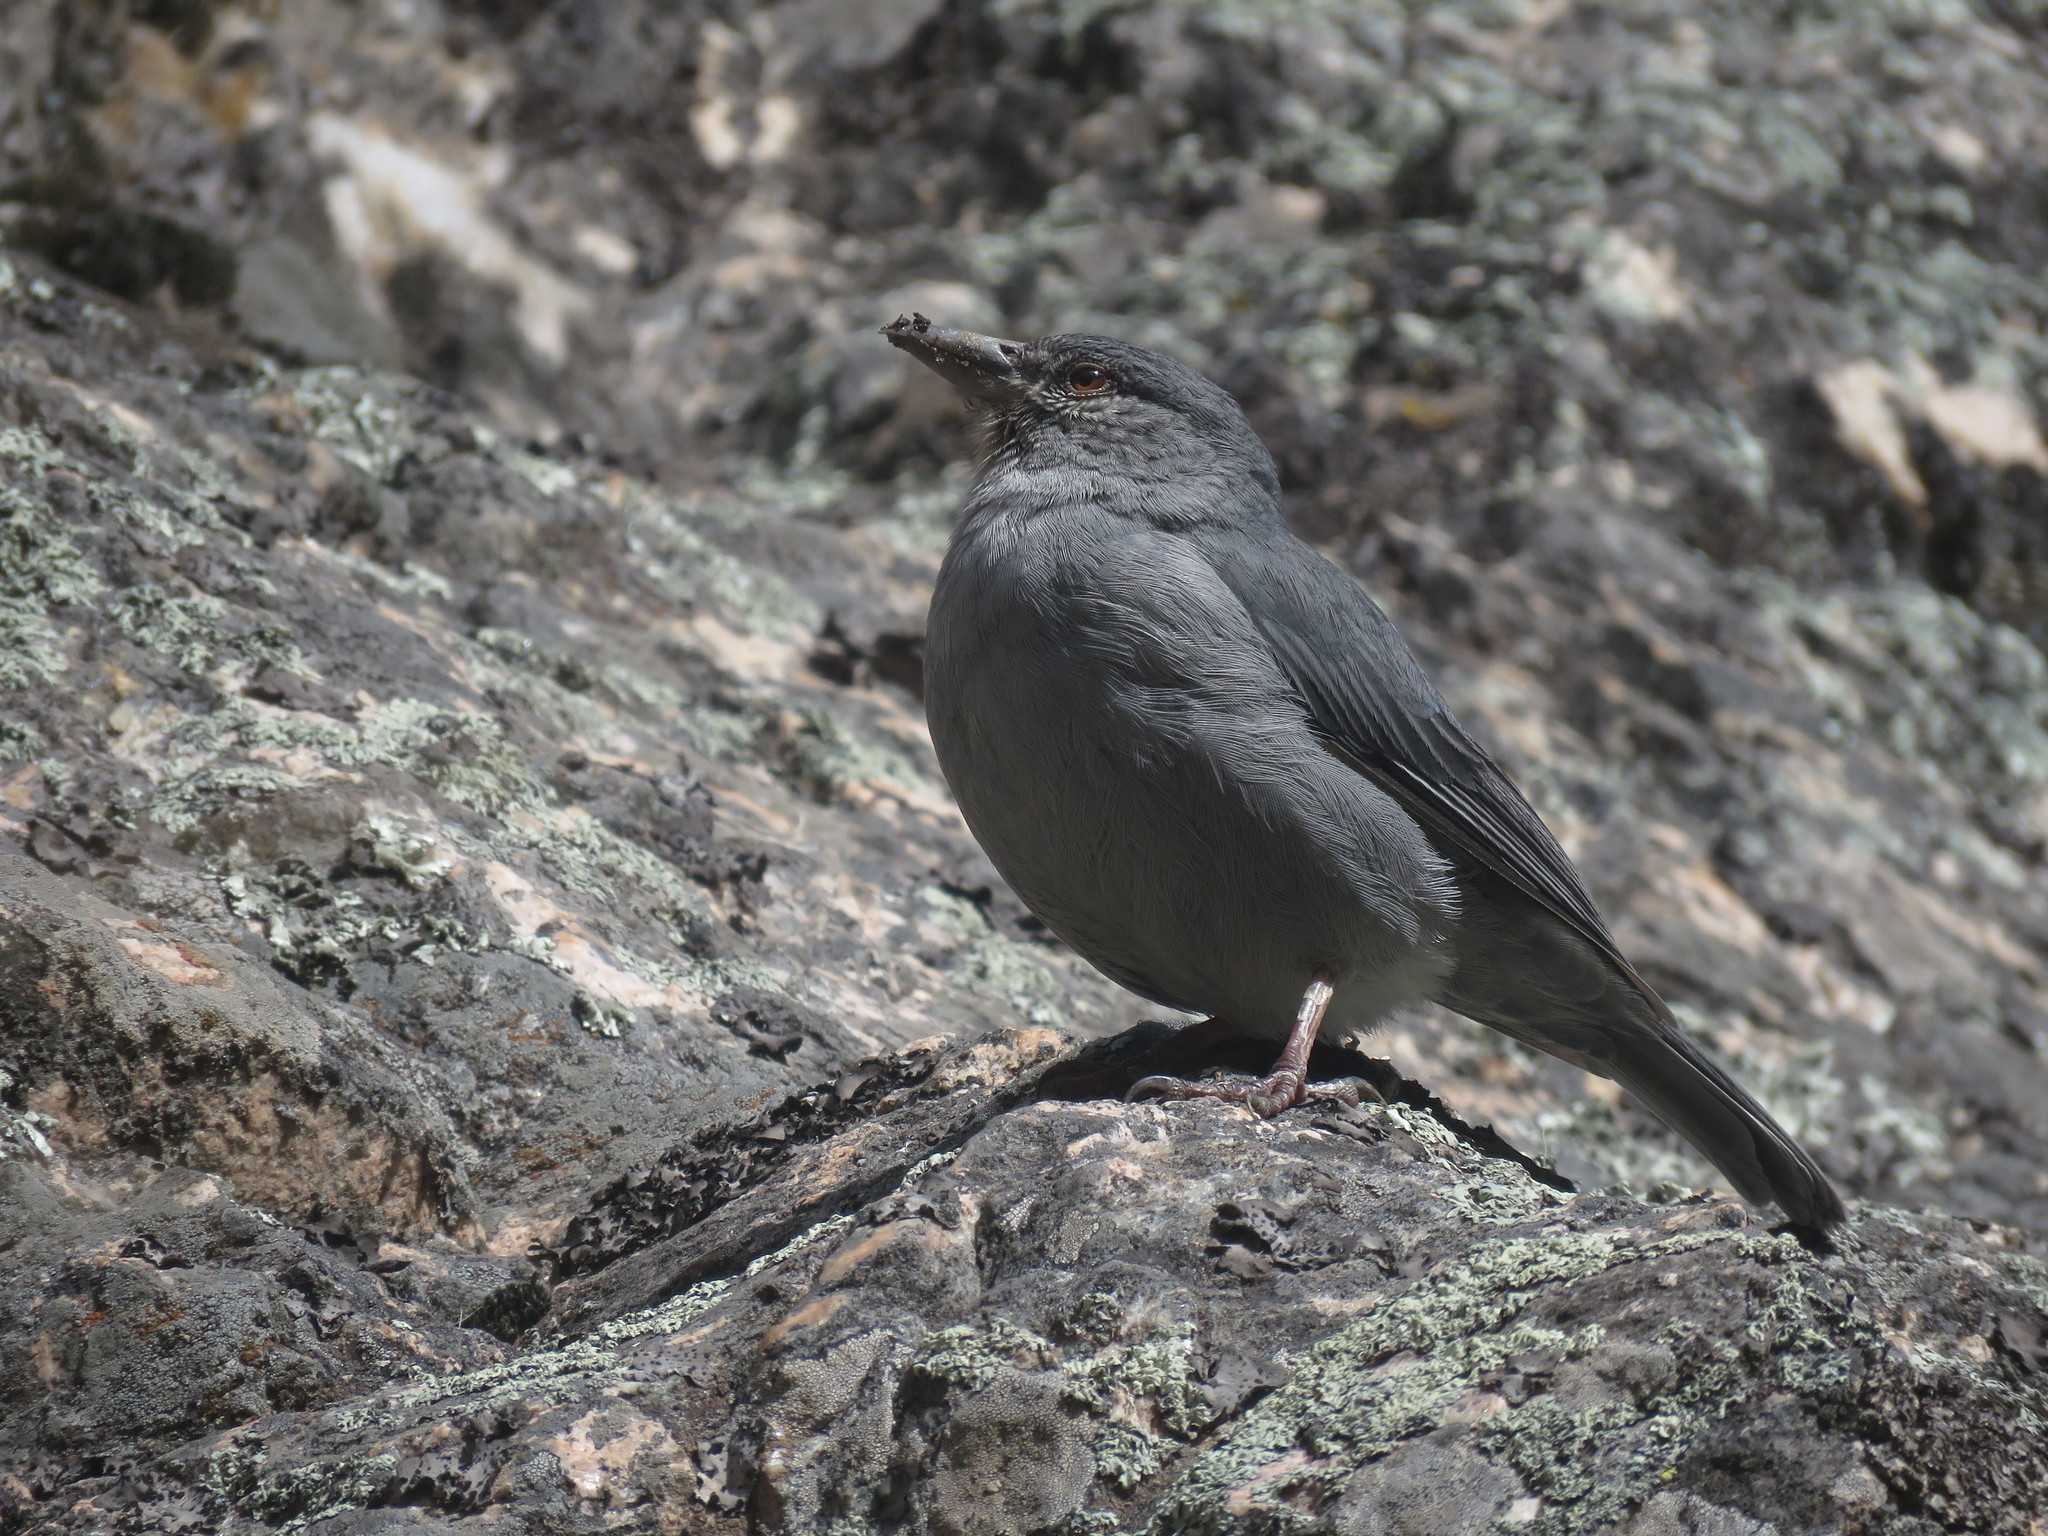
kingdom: Animalia
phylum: Chordata
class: Aves
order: Passeriformes
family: Thraupidae
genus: Idiopsar
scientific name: Idiopsar brachyurus
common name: Short-tailed finch
